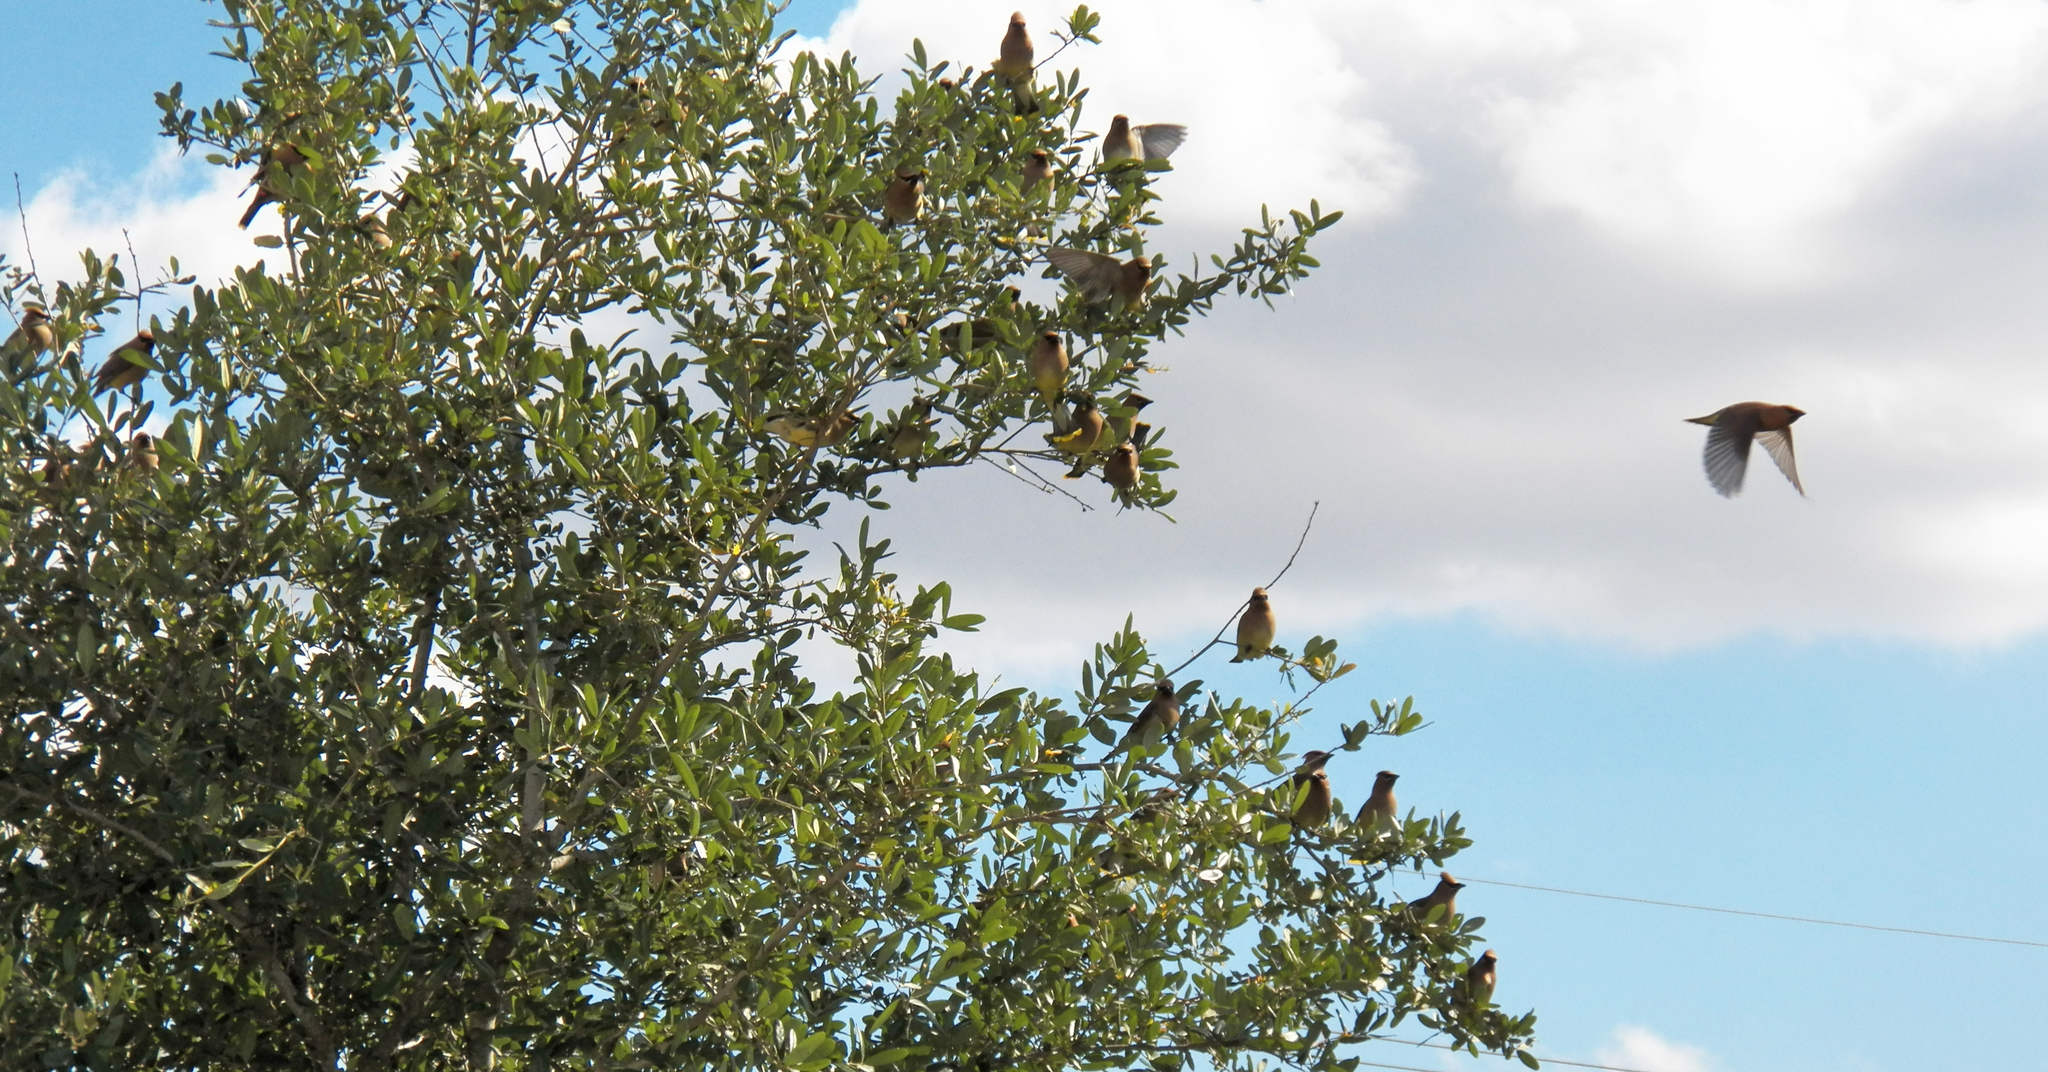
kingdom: Animalia
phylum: Chordata
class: Aves
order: Passeriformes
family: Bombycillidae
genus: Bombycilla
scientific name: Bombycilla cedrorum
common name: Cedar waxwing
